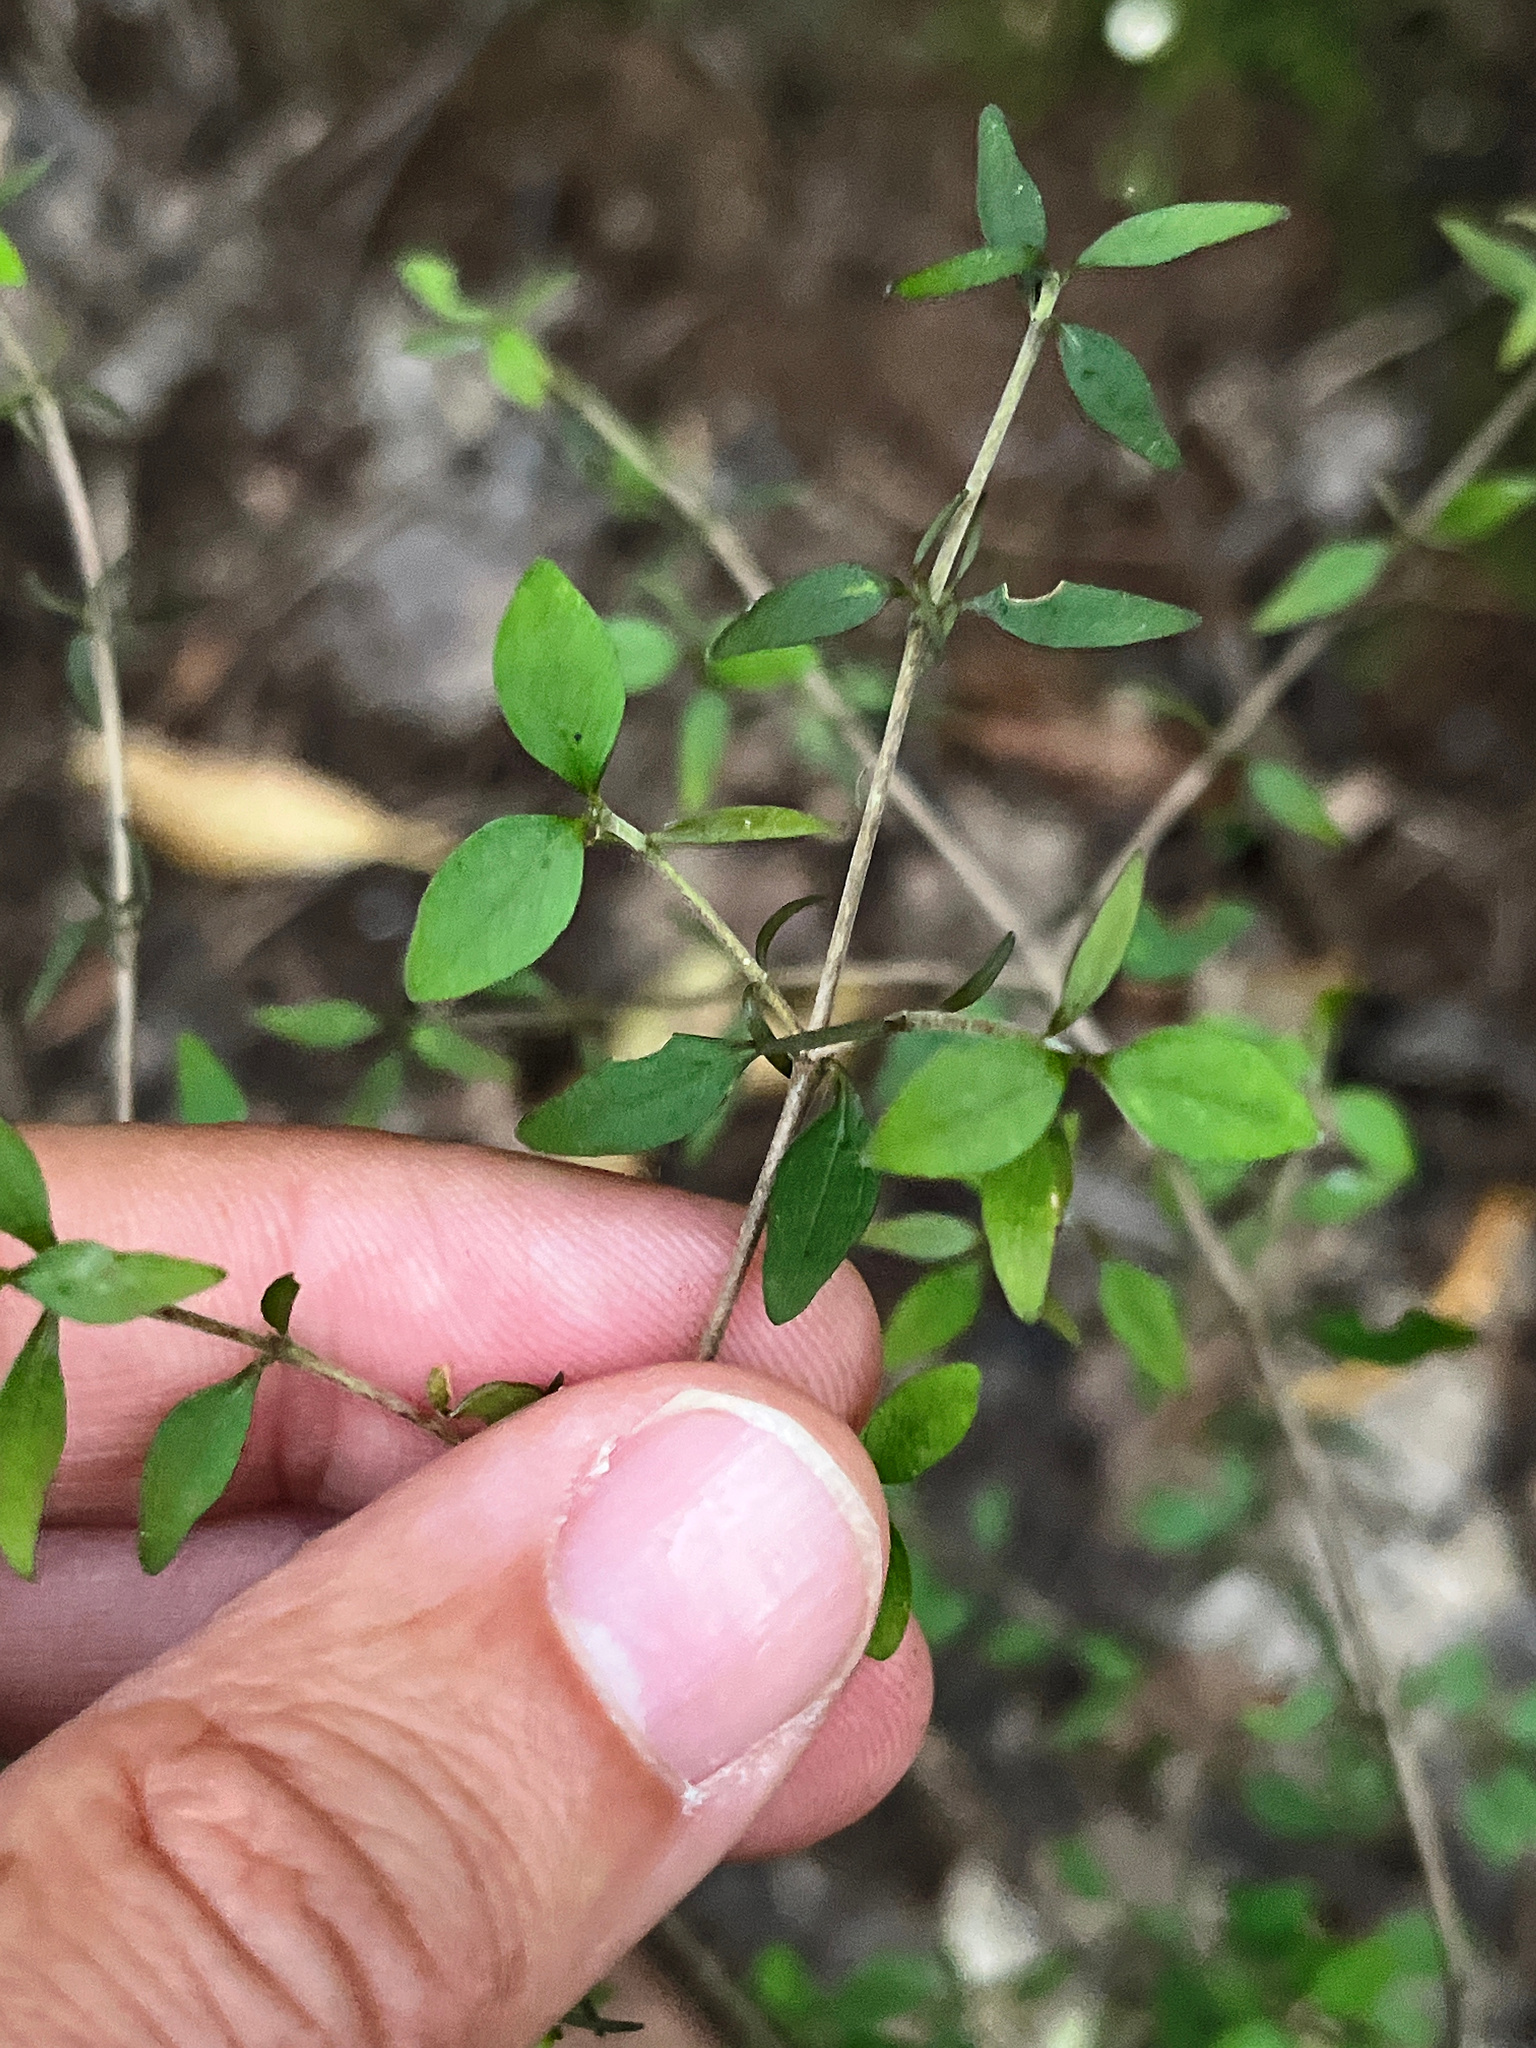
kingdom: Plantae
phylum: Tracheophyta
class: Magnoliopsida
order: Gentianales
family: Rubiaceae
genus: Coprosma
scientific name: Coprosma rhamnoides
